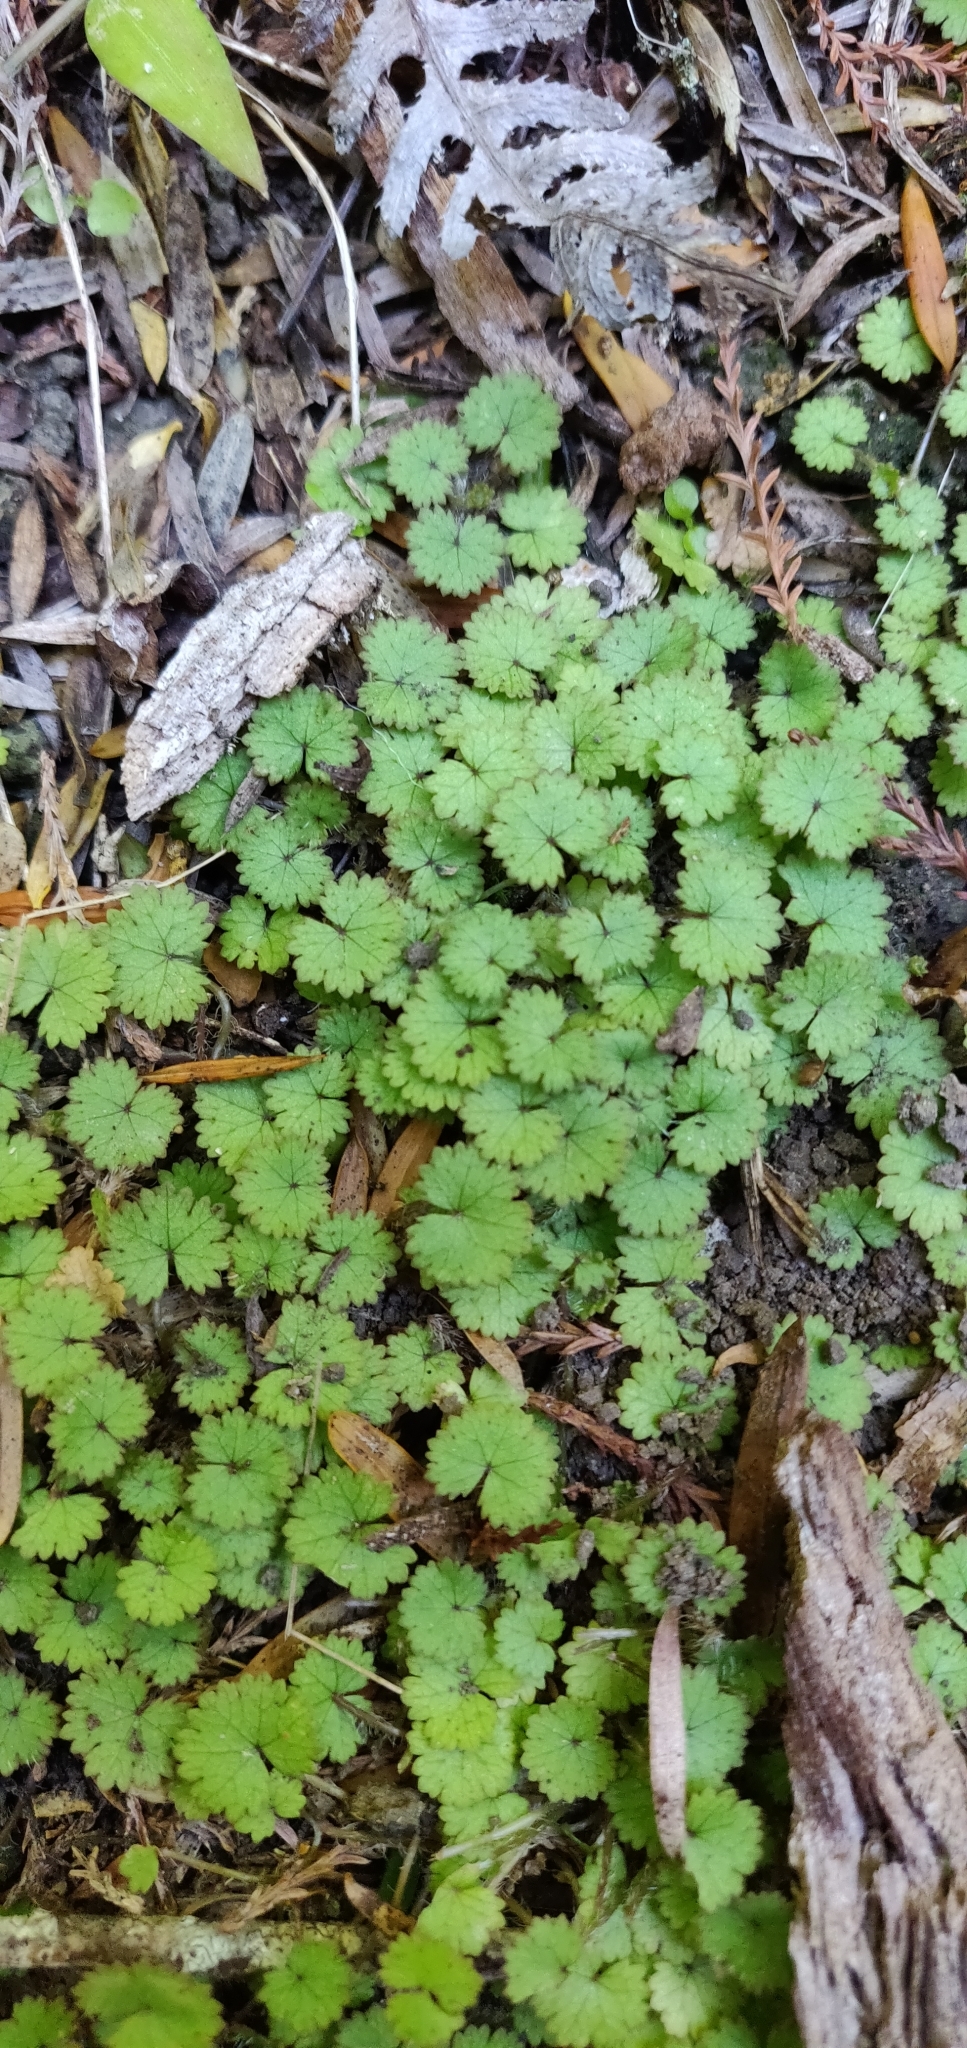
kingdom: Plantae
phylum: Tracheophyta
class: Magnoliopsida
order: Apiales
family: Araliaceae
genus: Hydrocotyle
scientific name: Hydrocotyle moschata
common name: Hairy pennywort
